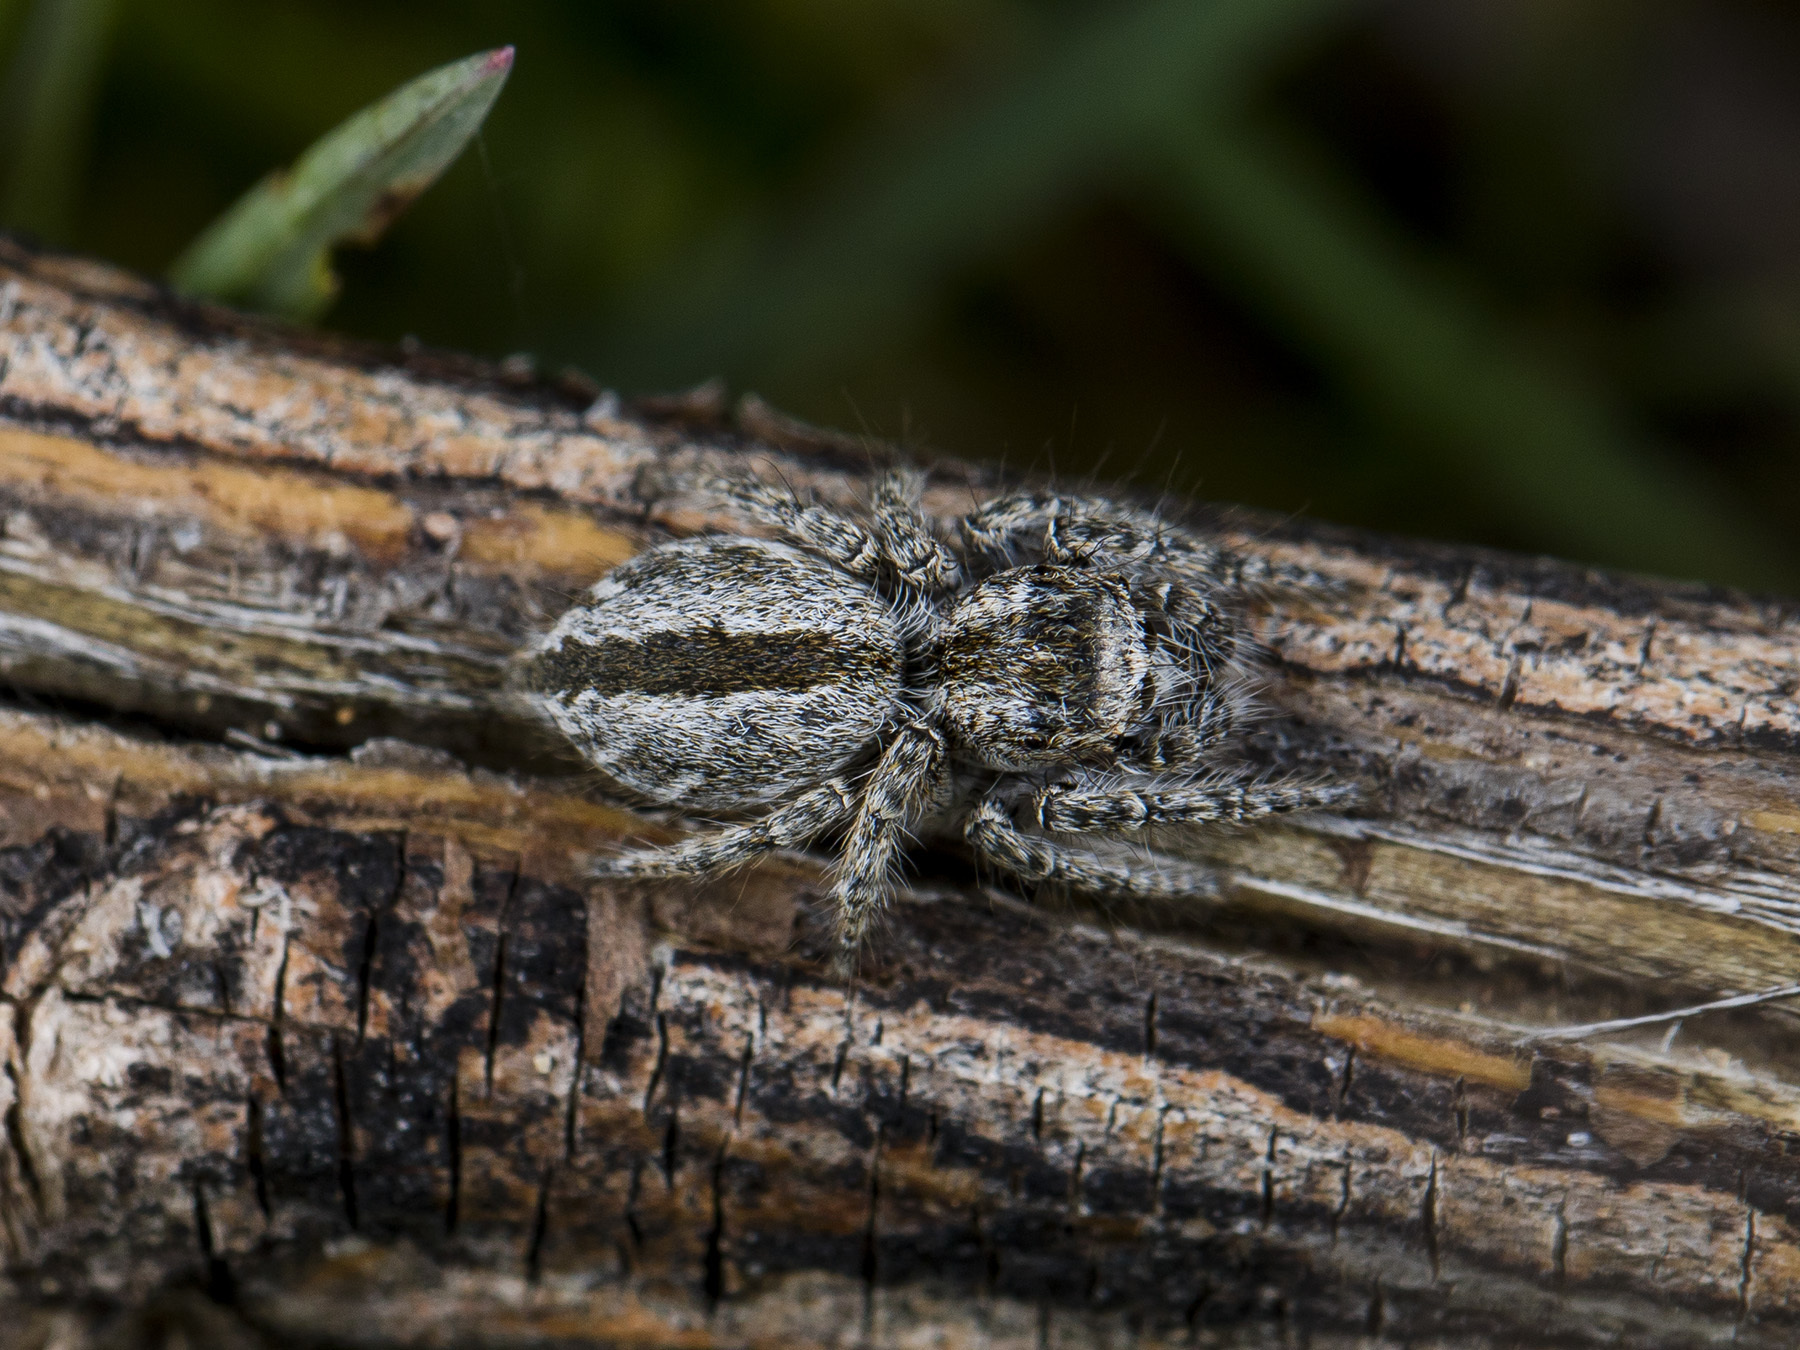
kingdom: Animalia
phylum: Arthropoda
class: Arachnida
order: Araneae
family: Salticidae
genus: Mogrus
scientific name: Mogrus larisae
